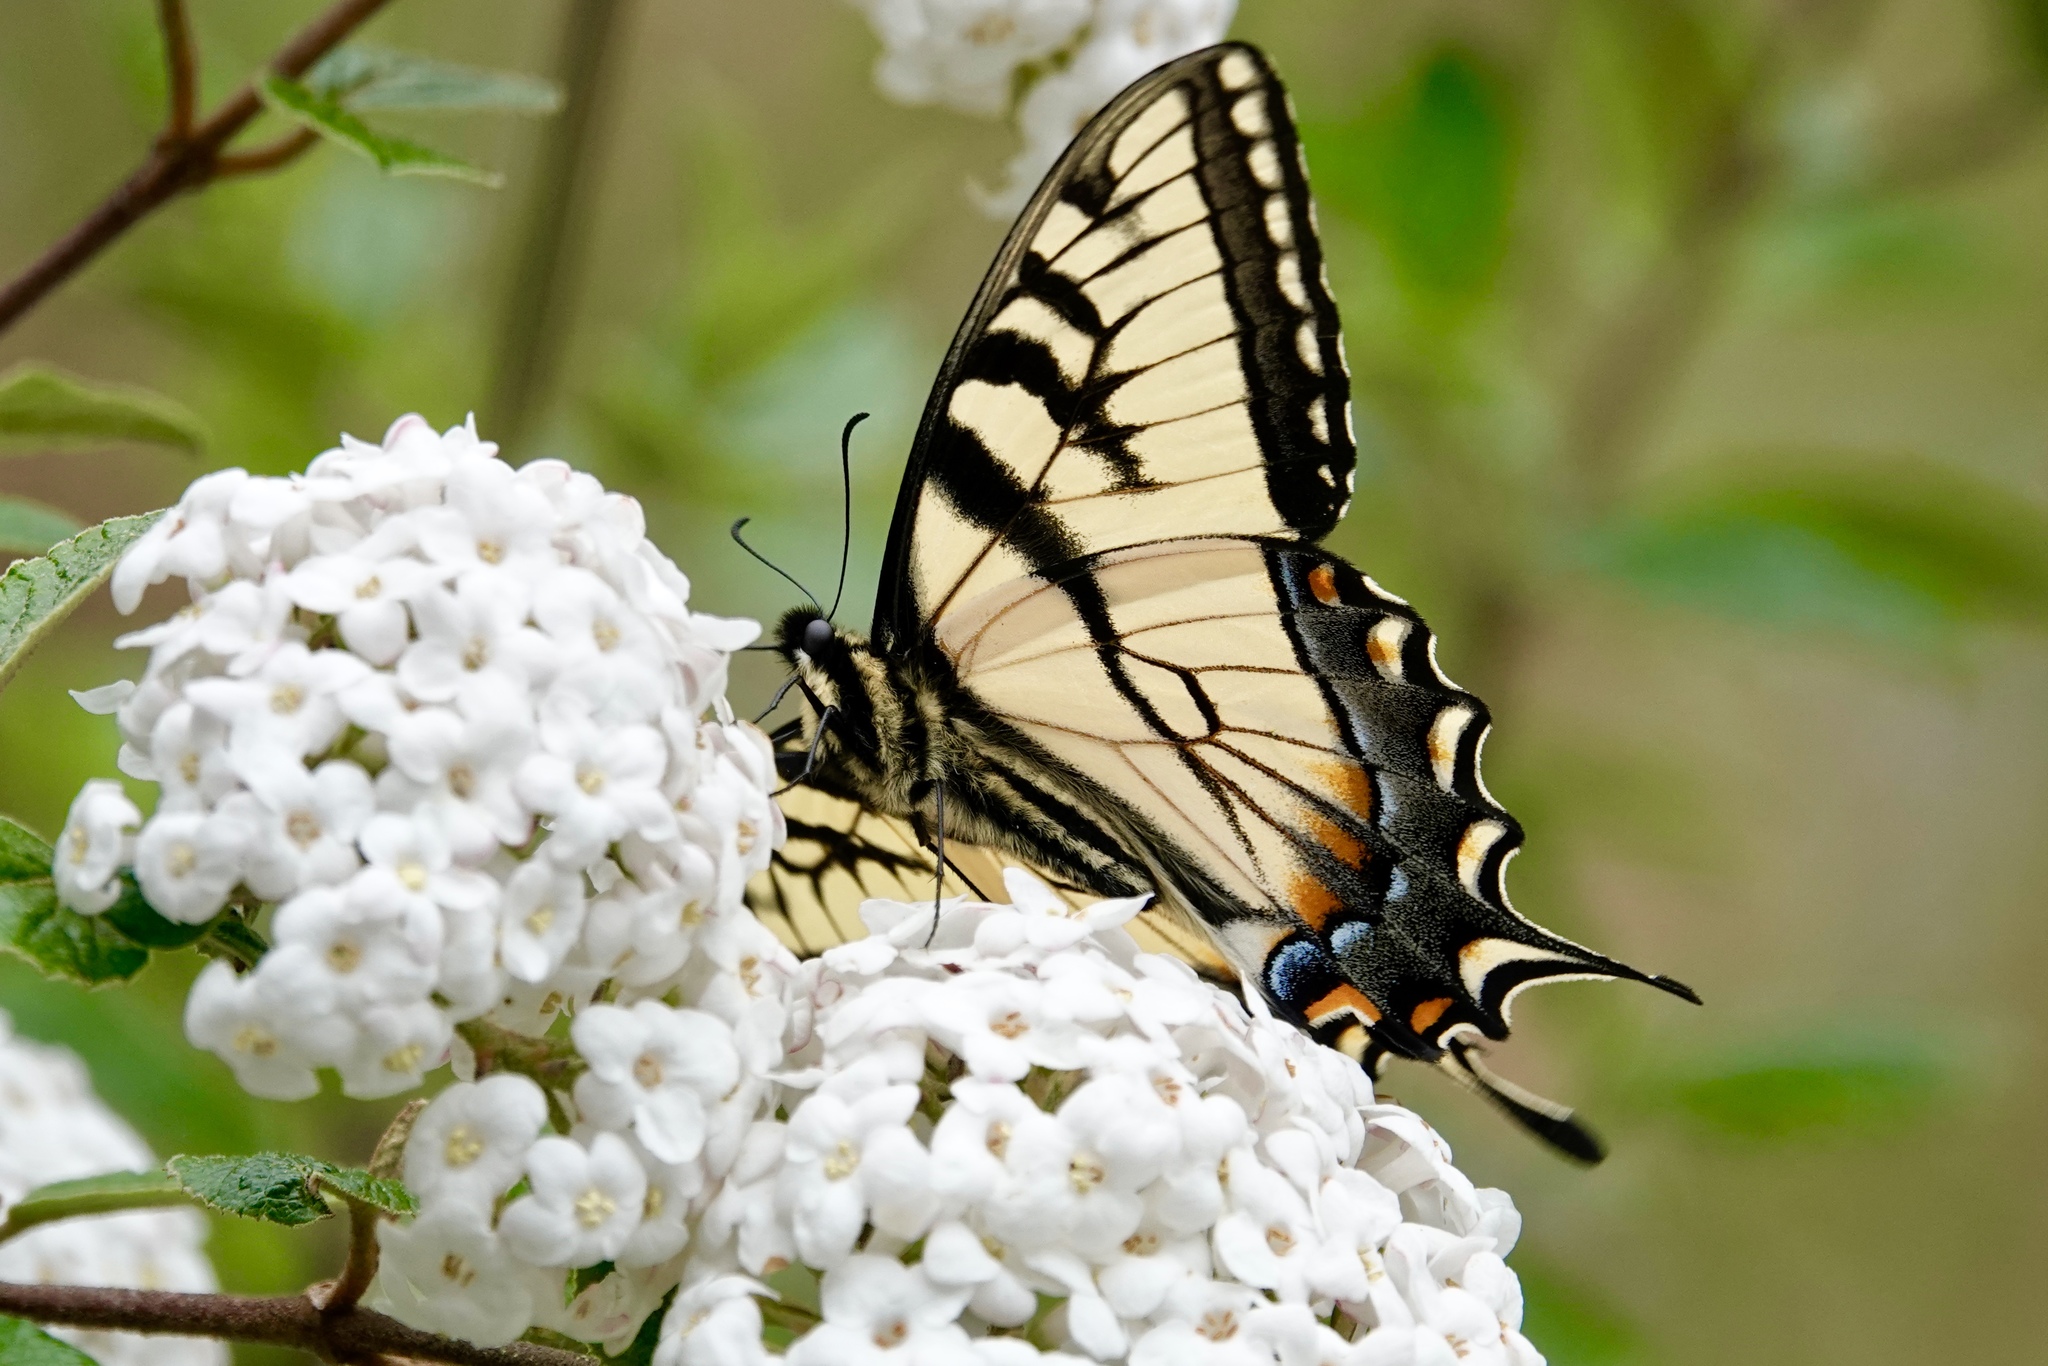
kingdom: Animalia
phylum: Arthropoda
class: Insecta
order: Lepidoptera
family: Papilionidae
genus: Papilio
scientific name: Papilio glaucus
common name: Tiger swallowtail
